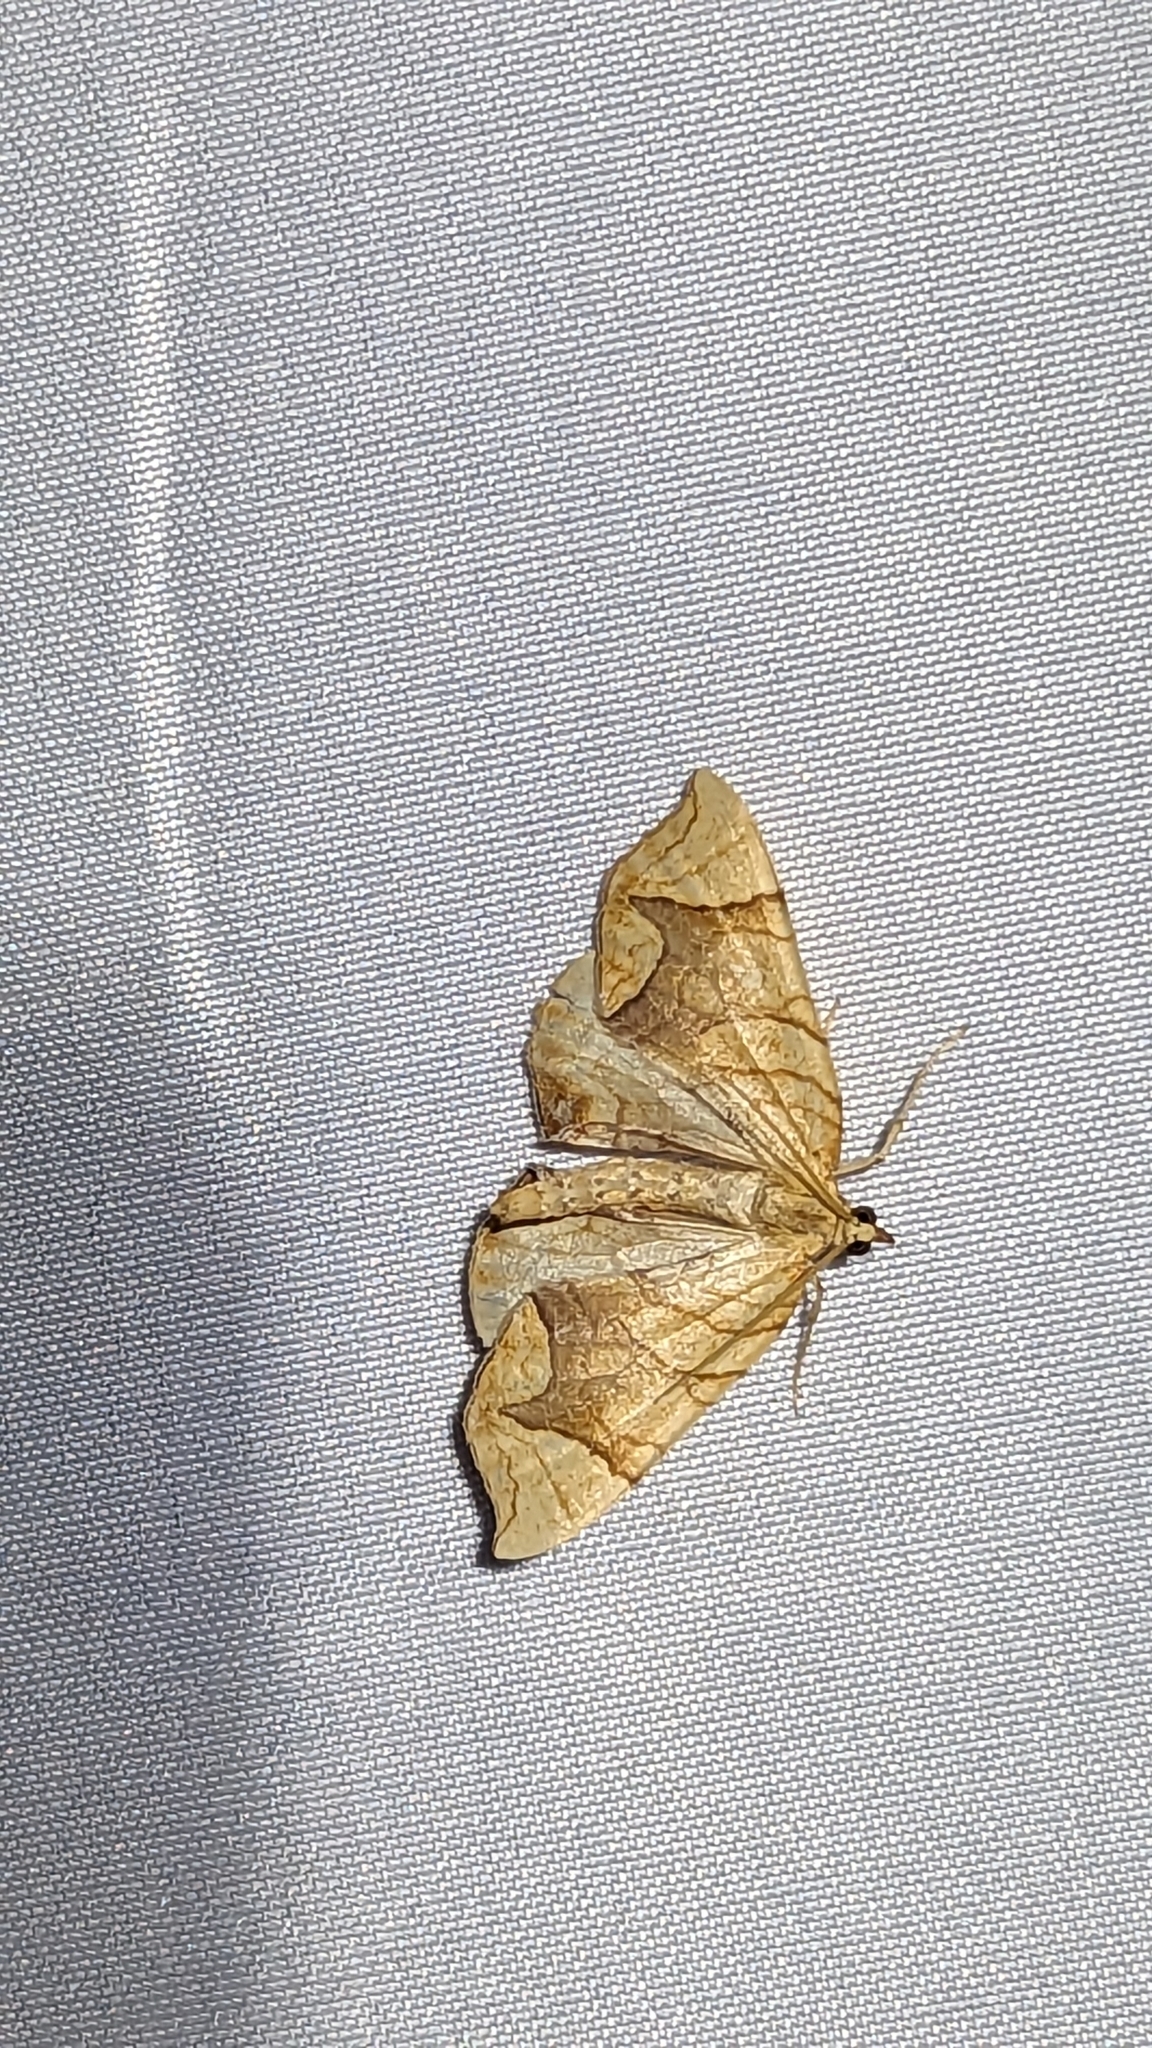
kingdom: Animalia
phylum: Arthropoda
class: Insecta
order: Lepidoptera
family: Geometridae
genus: Eulithis
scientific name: Eulithis
